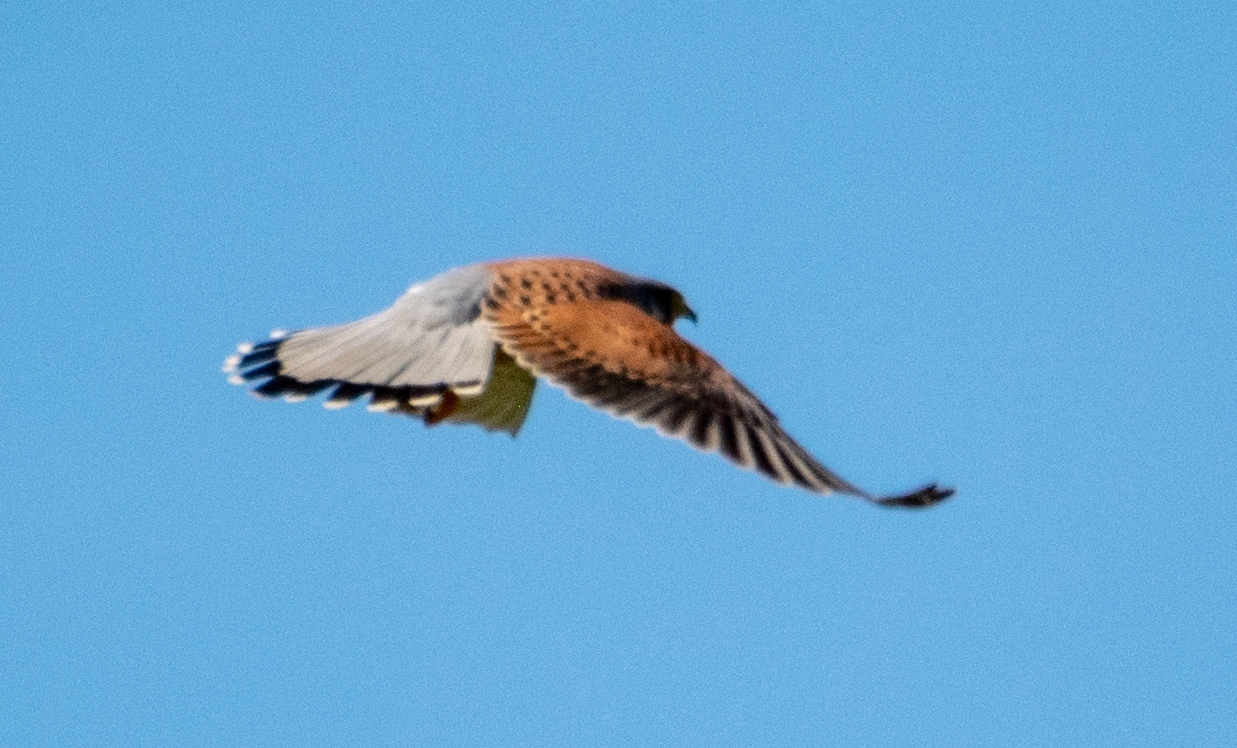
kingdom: Animalia
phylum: Chordata
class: Aves
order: Falconiformes
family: Falconidae
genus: Falco
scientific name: Falco tinnunculus
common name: Common kestrel
